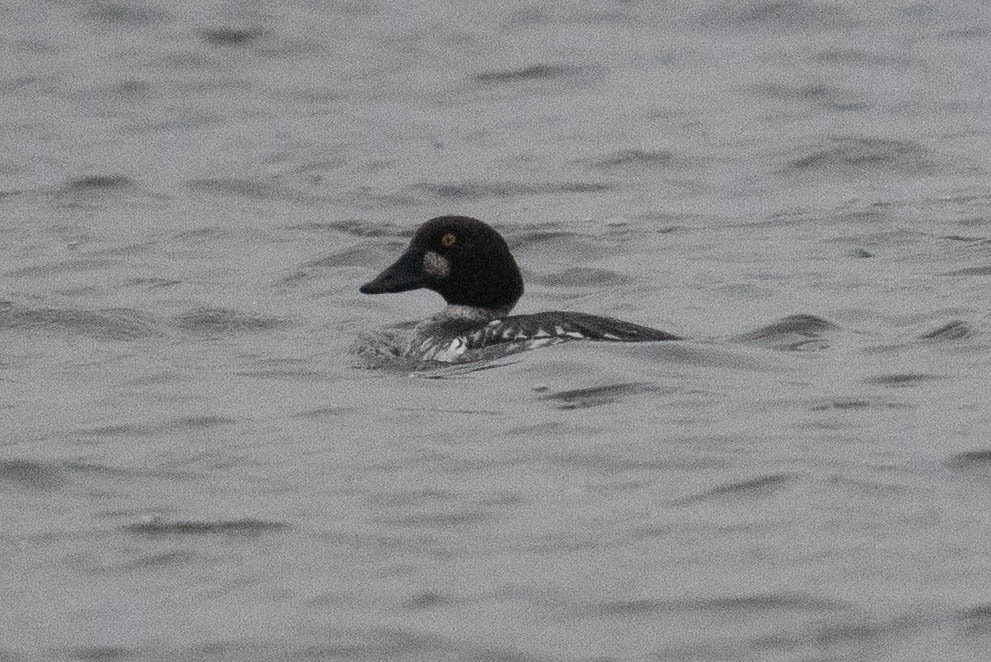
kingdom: Animalia
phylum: Chordata
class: Aves
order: Anseriformes
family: Anatidae
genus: Bucephala
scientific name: Bucephala clangula
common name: Common goldeneye
